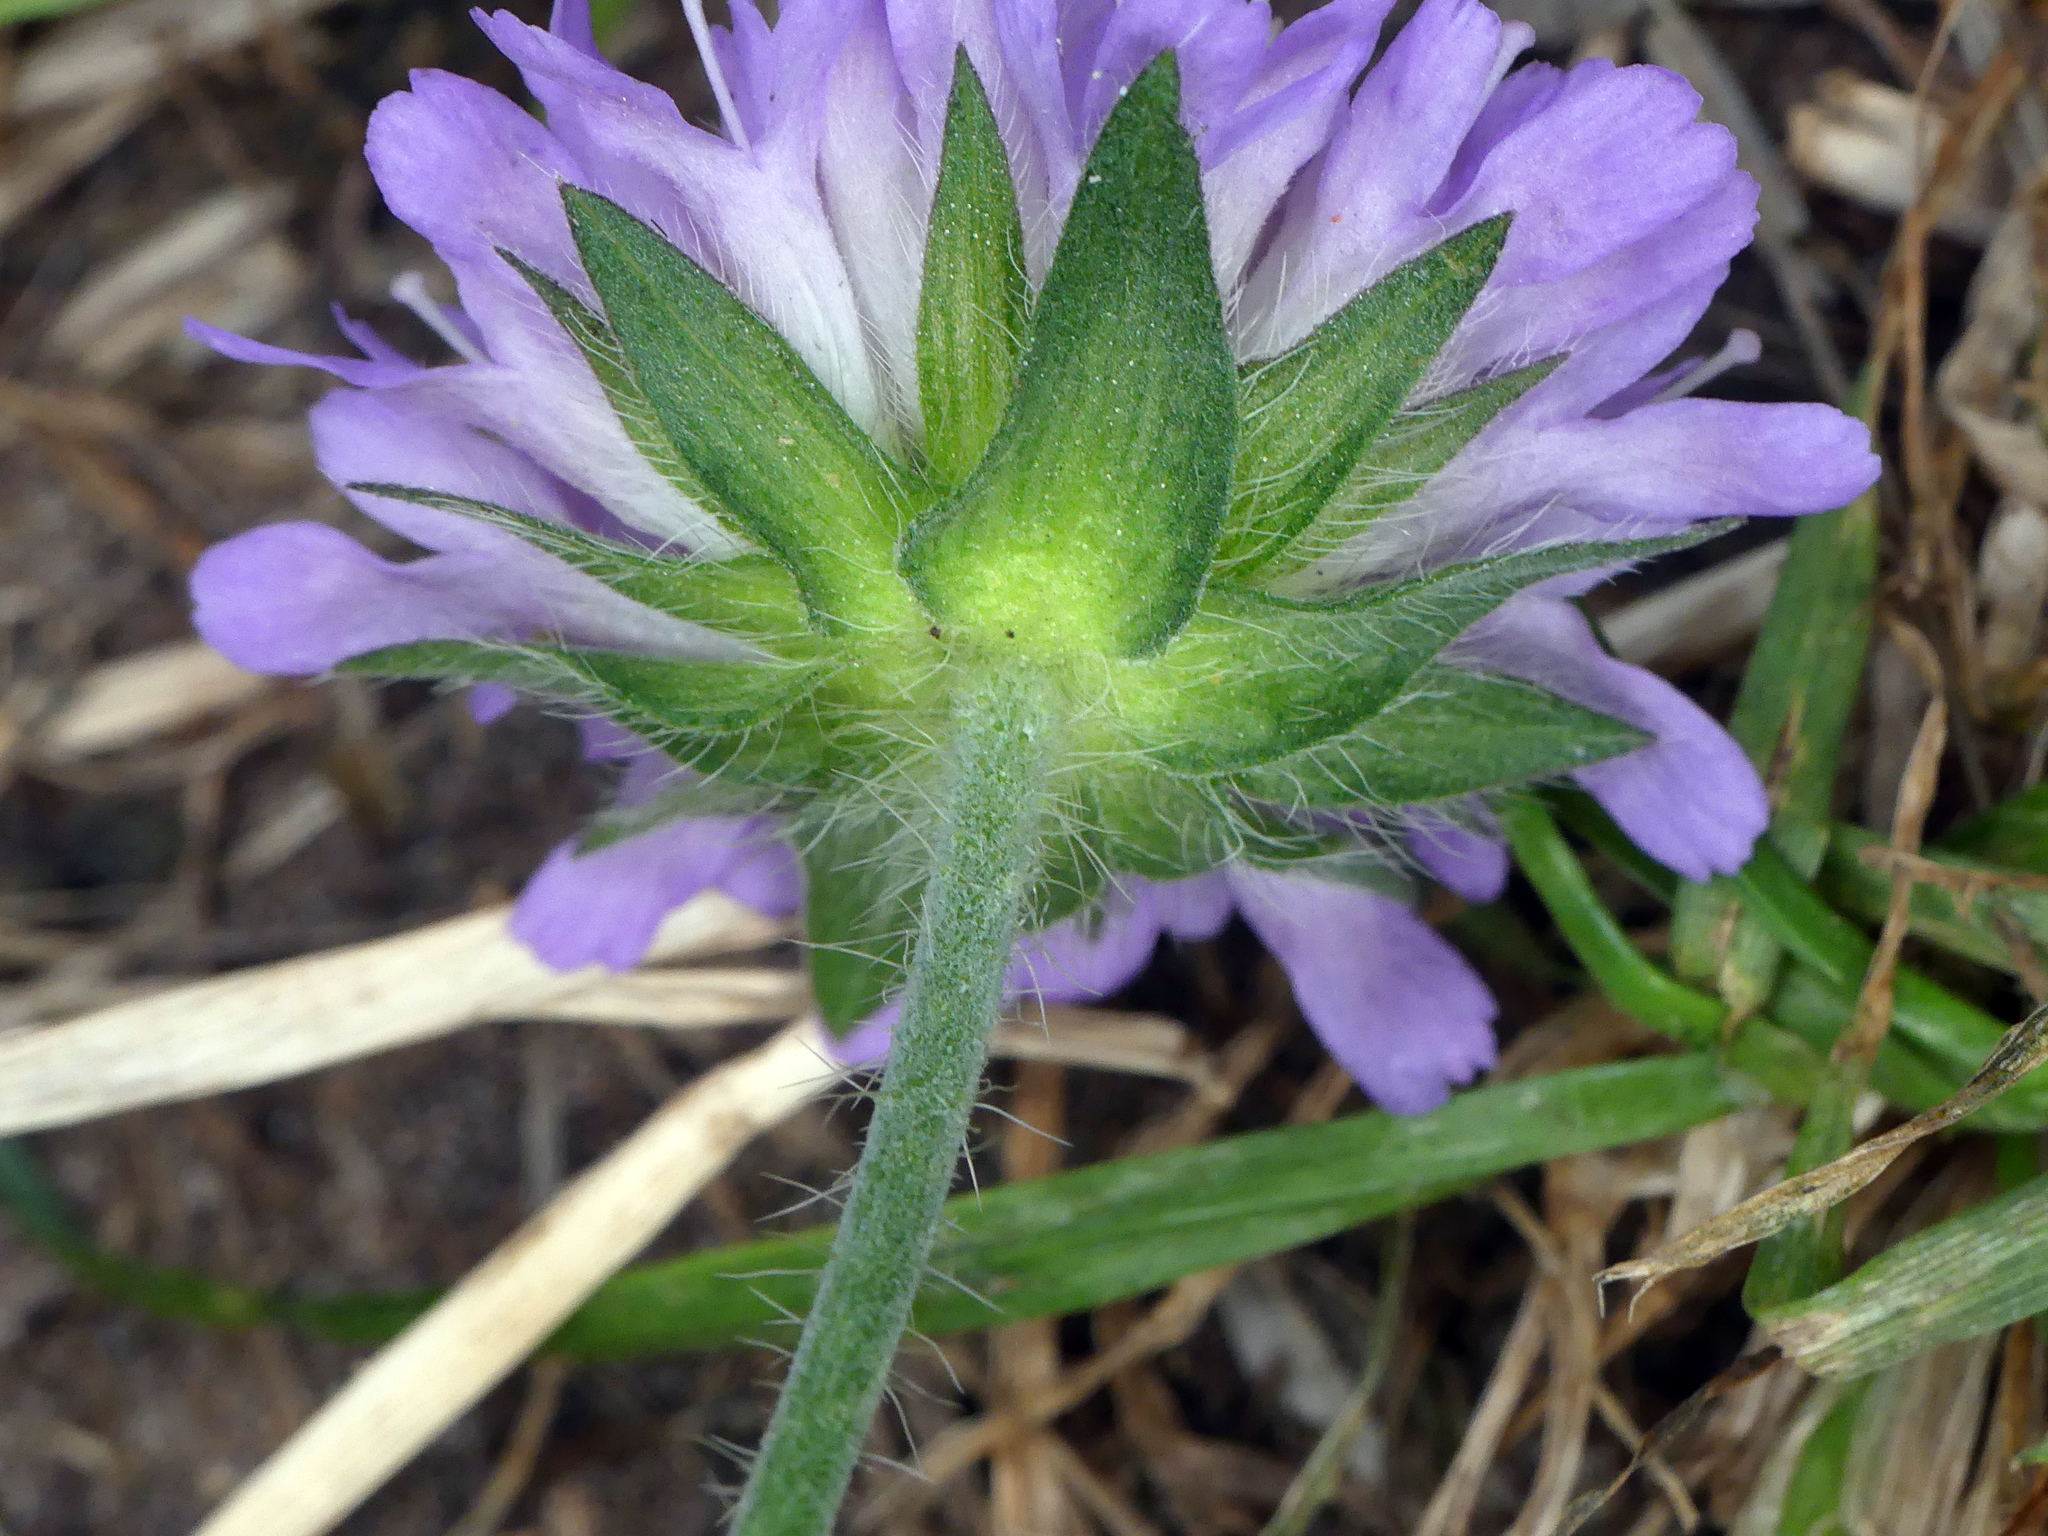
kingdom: Plantae
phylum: Tracheophyta
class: Magnoliopsida
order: Dipsacales
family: Caprifoliaceae
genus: Knautia
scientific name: Knautia arvensis
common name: Field scabiosa
